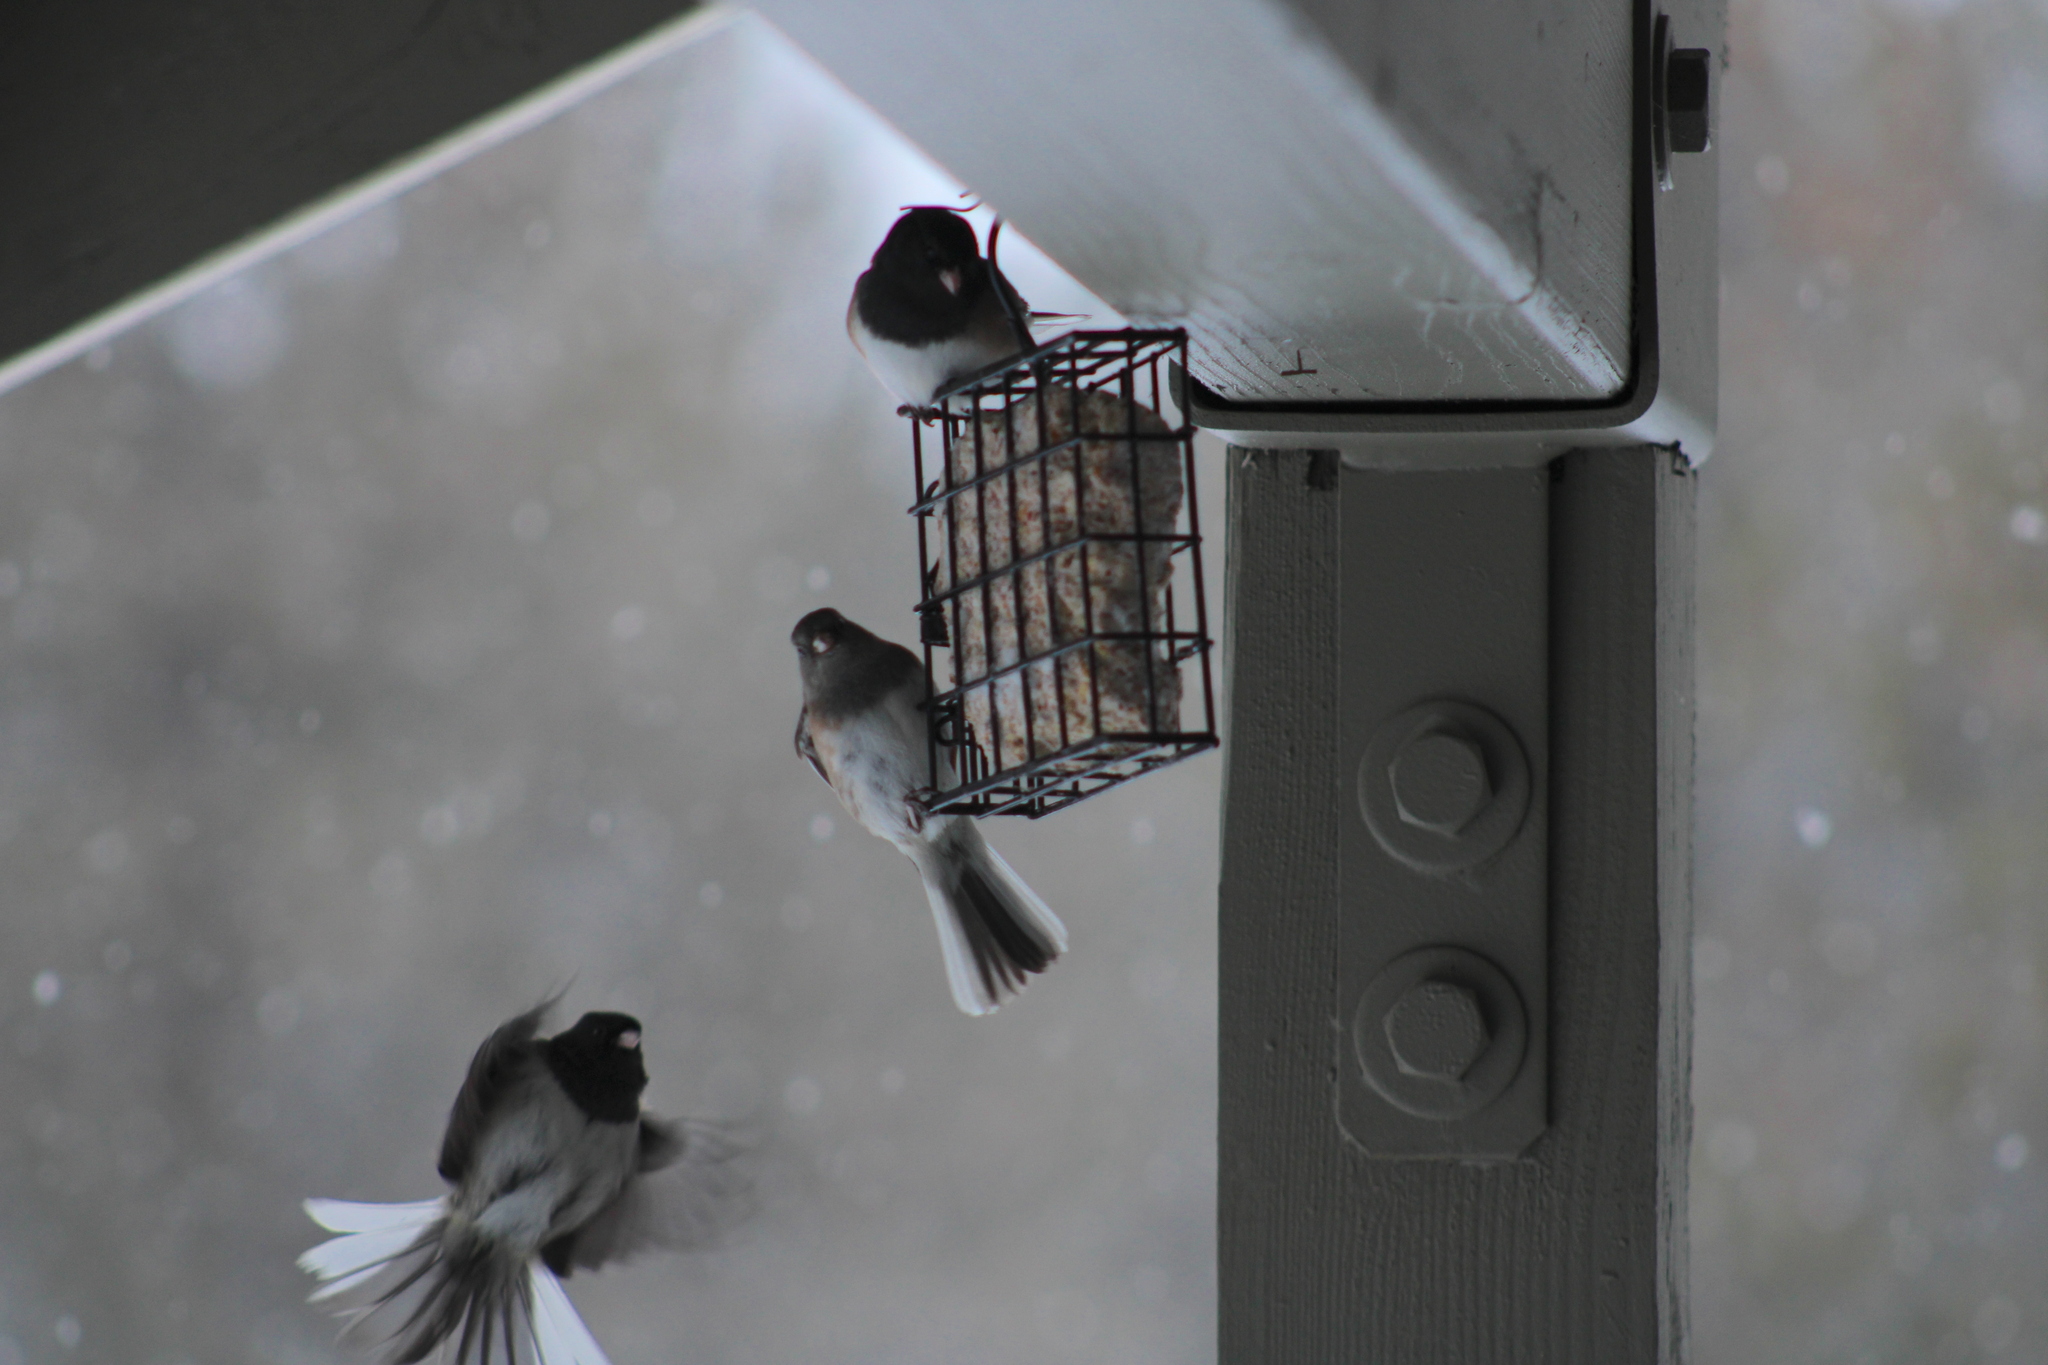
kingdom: Animalia
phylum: Chordata
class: Aves
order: Passeriformes
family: Passerellidae
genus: Junco
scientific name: Junco hyemalis
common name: Dark-eyed junco
